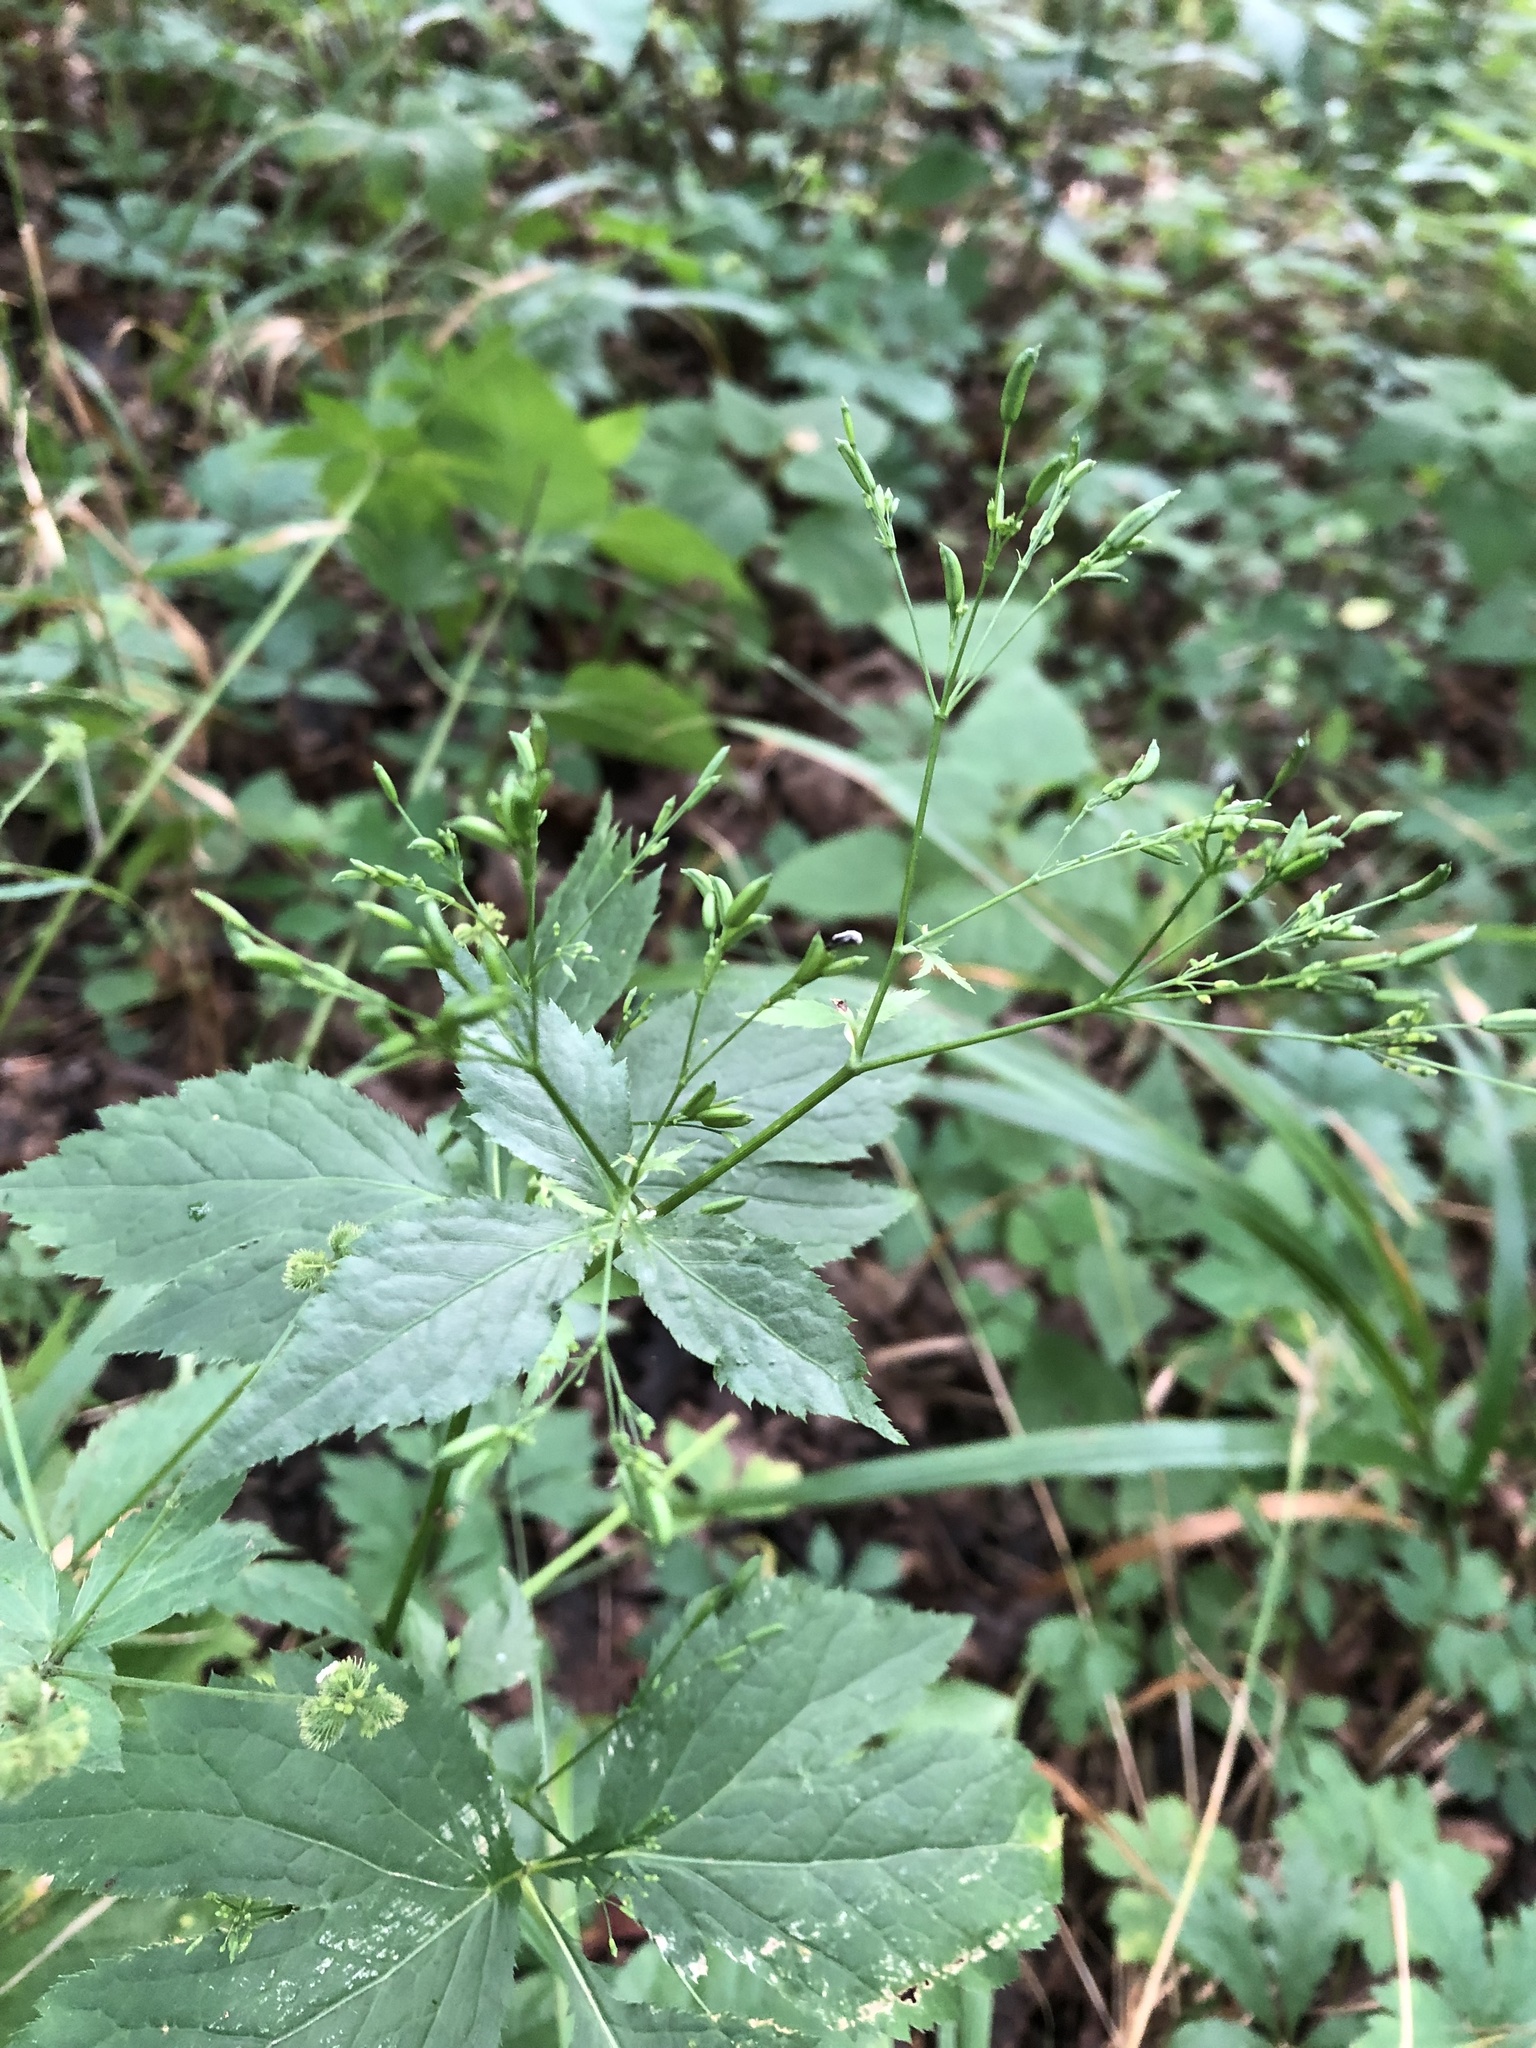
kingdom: Plantae
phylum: Tracheophyta
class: Magnoliopsida
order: Apiales
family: Apiaceae
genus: Cryptotaenia
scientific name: Cryptotaenia canadensis
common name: Honewort
